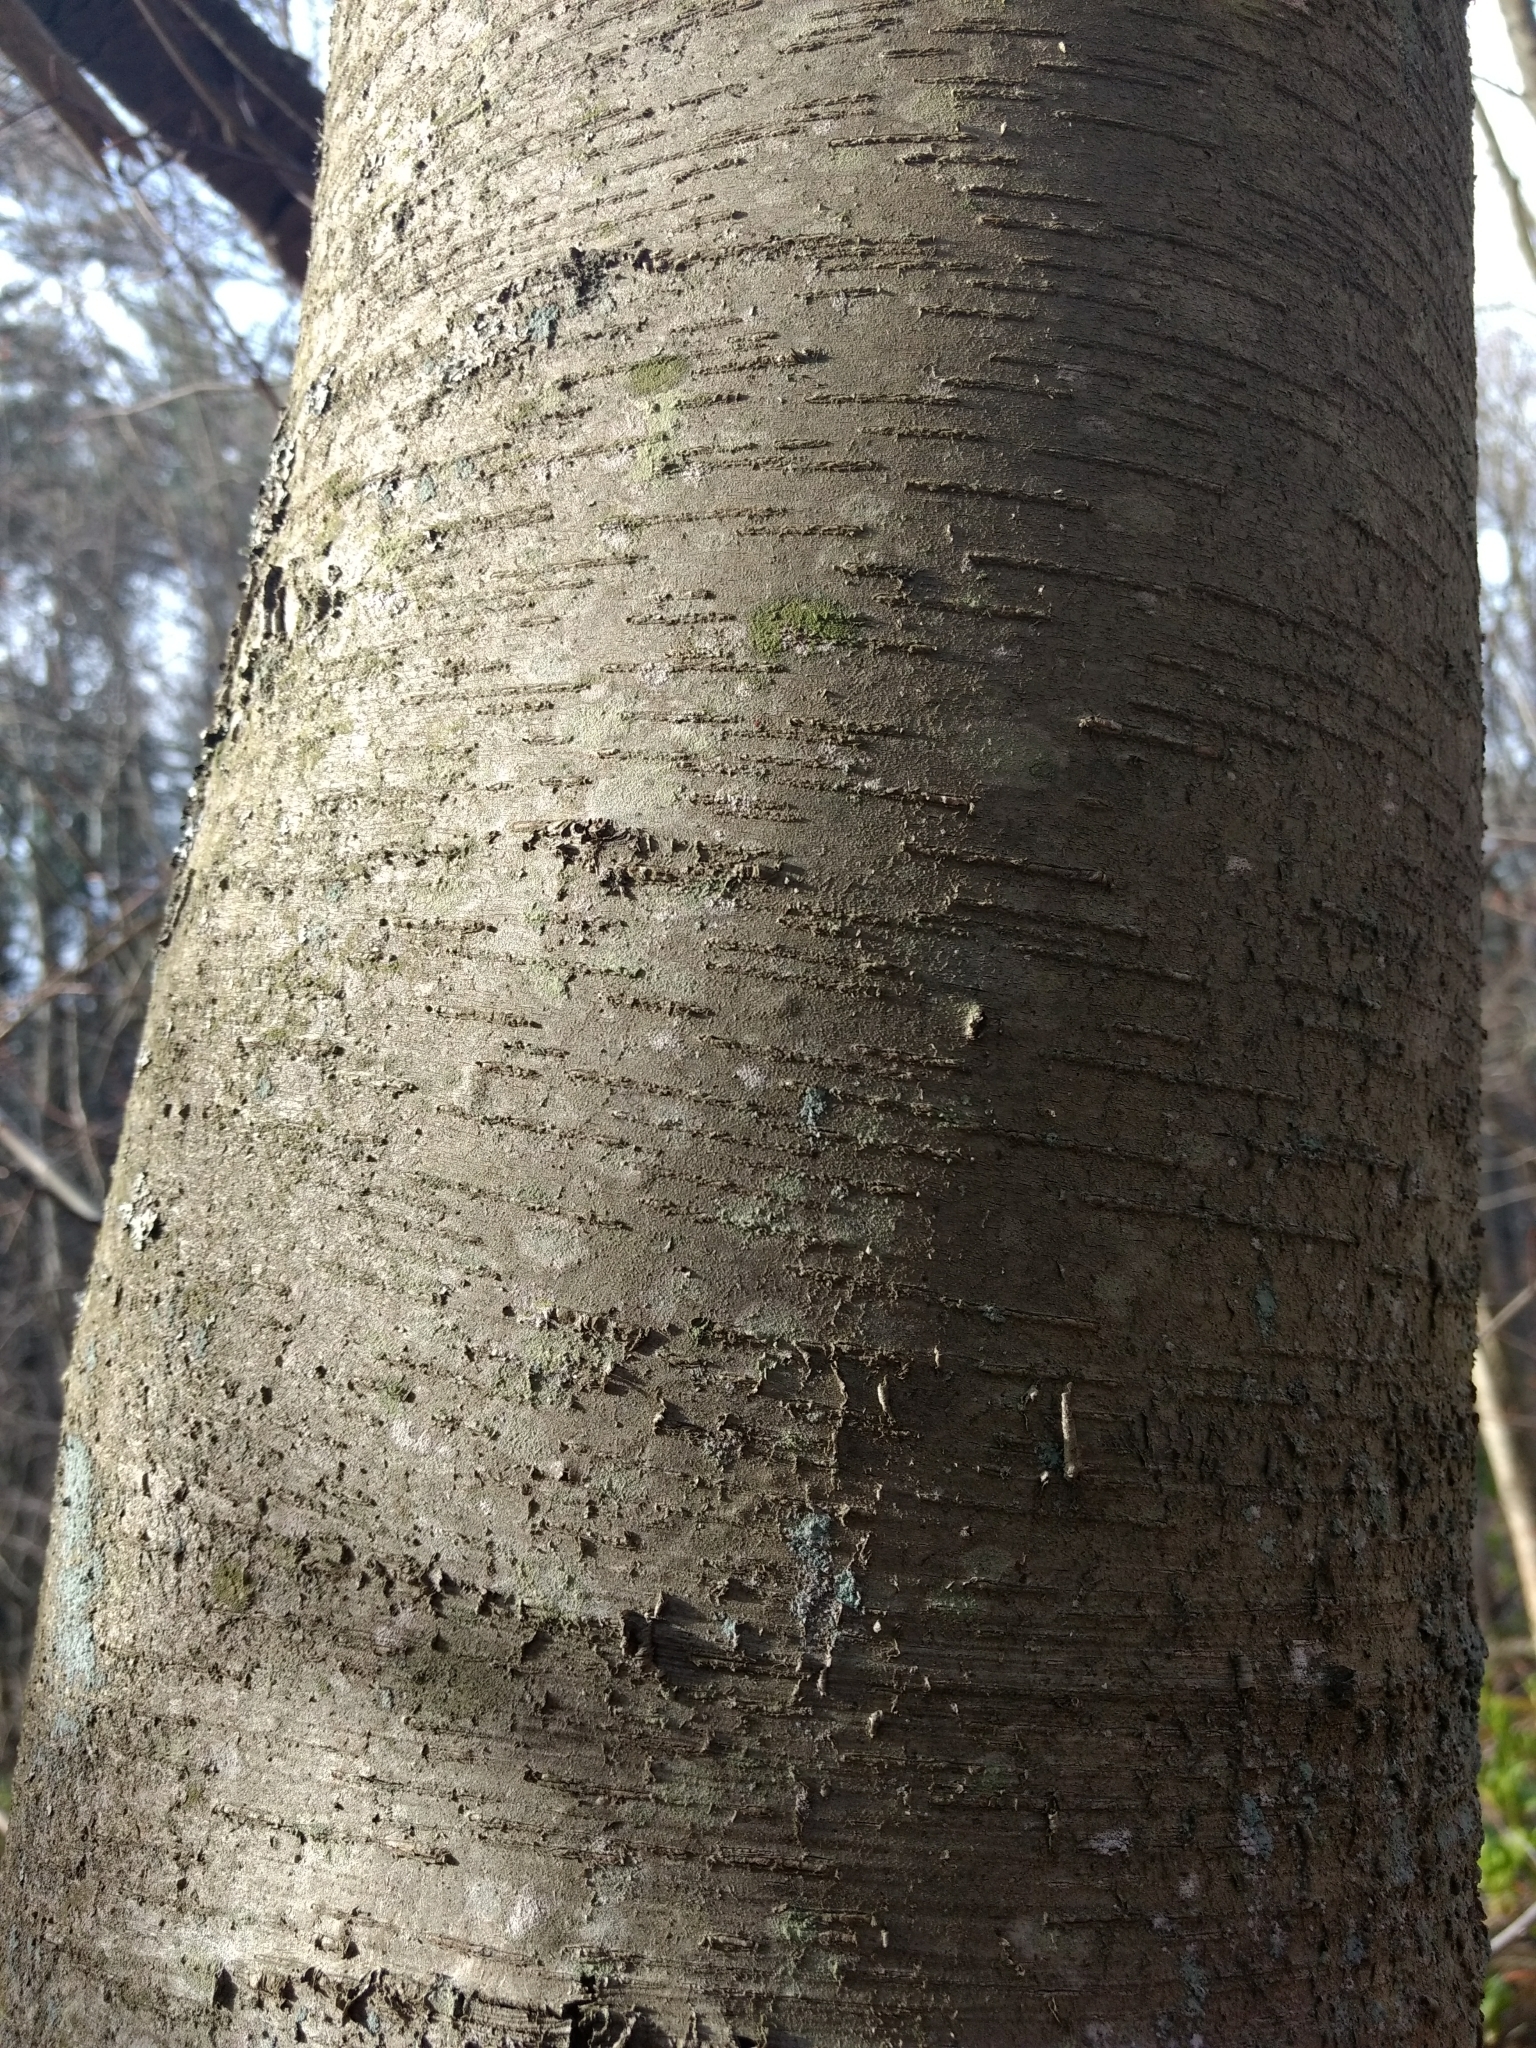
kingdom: Plantae
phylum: Tracheophyta
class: Magnoliopsida
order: Fagales
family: Betulaceae
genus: Betula
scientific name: Betula lenta
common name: Black birch
